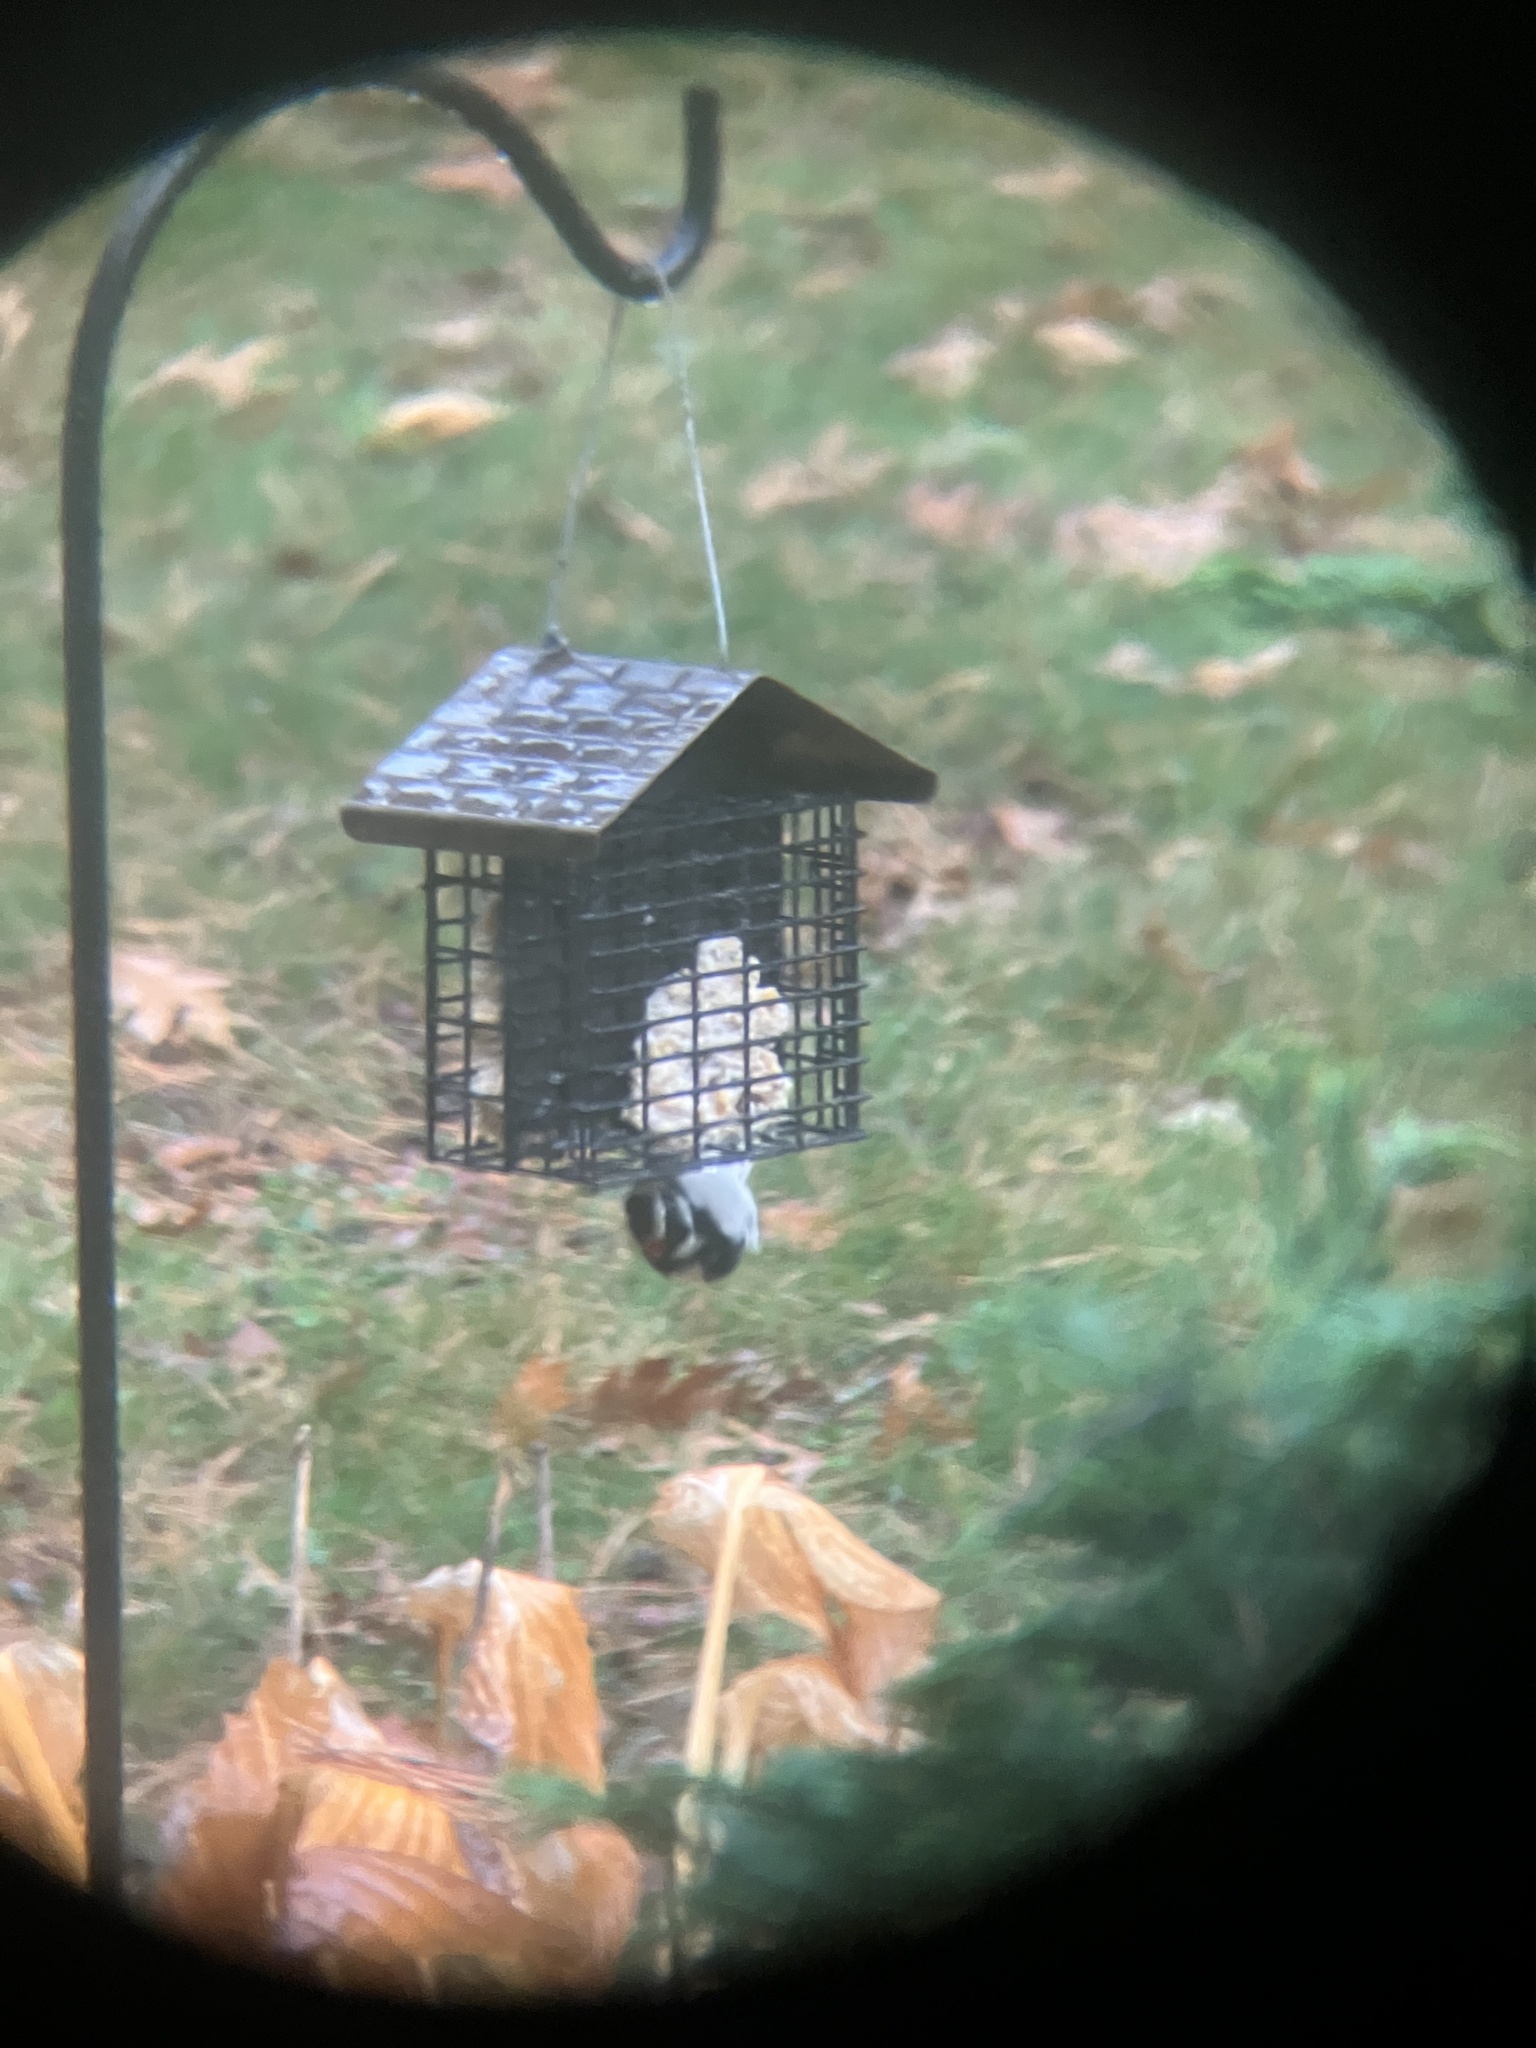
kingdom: Animalia
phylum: Chordata
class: Aves
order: Piciformes
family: Picidae
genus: Dryobates
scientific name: Dryobates pubescens
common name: Downy woodpecker
